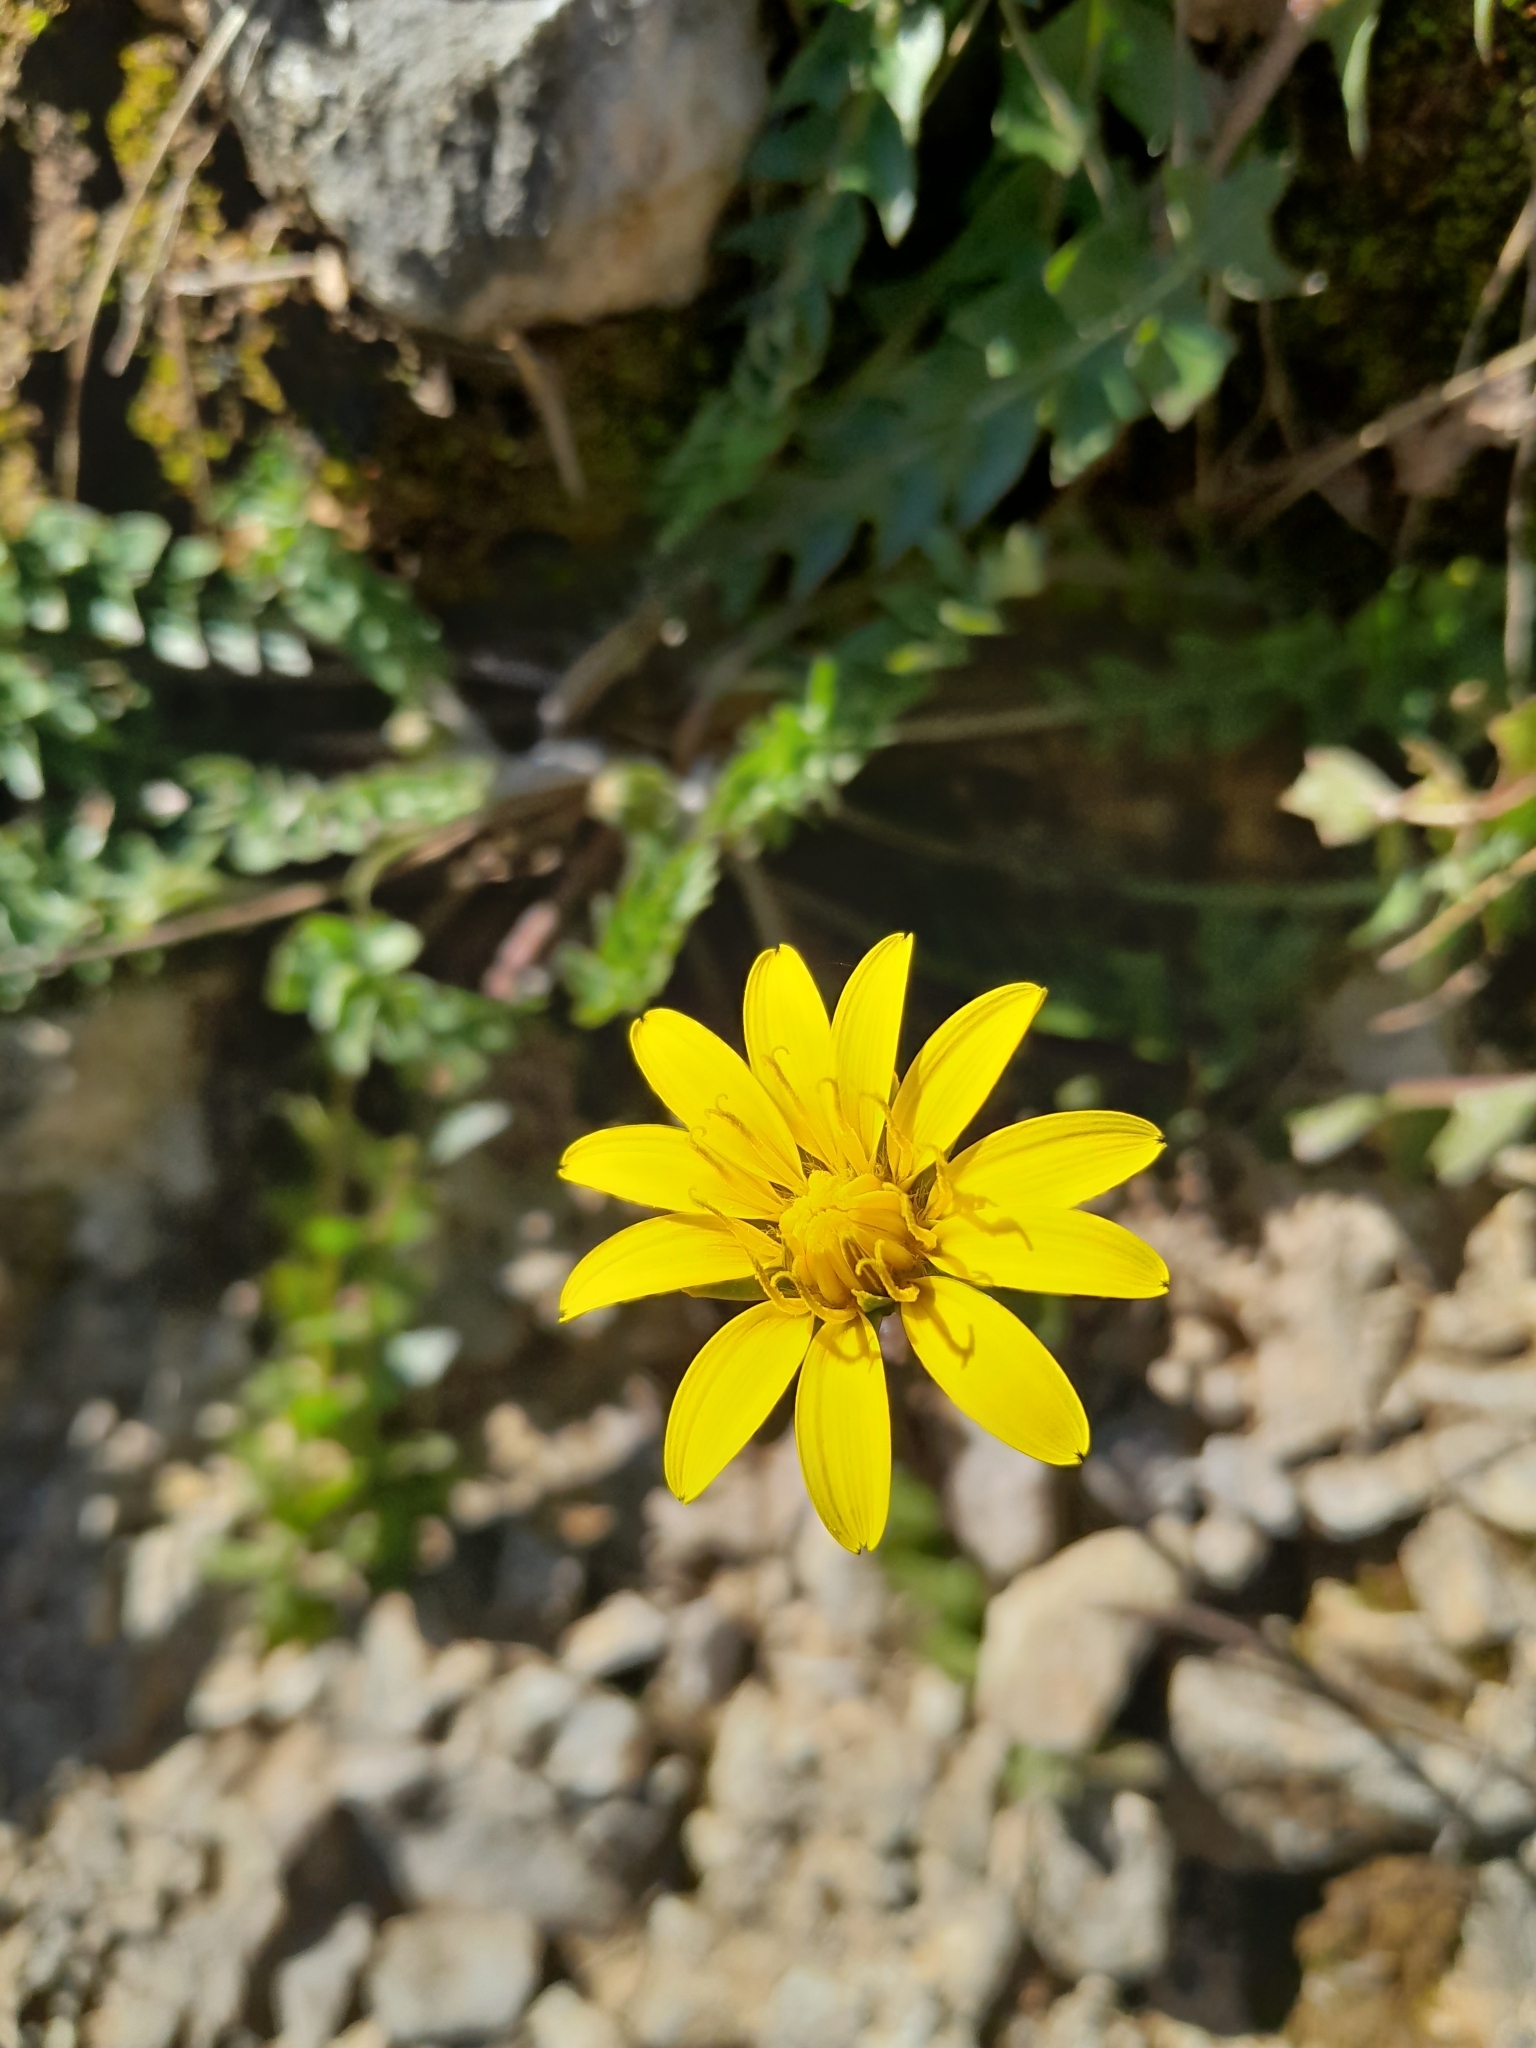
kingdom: Plantae
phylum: Tracheophyta
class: Magnoliopsida
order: Asterales
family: Asteraceae
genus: Hyoseris
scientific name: Hyoseris radiata
